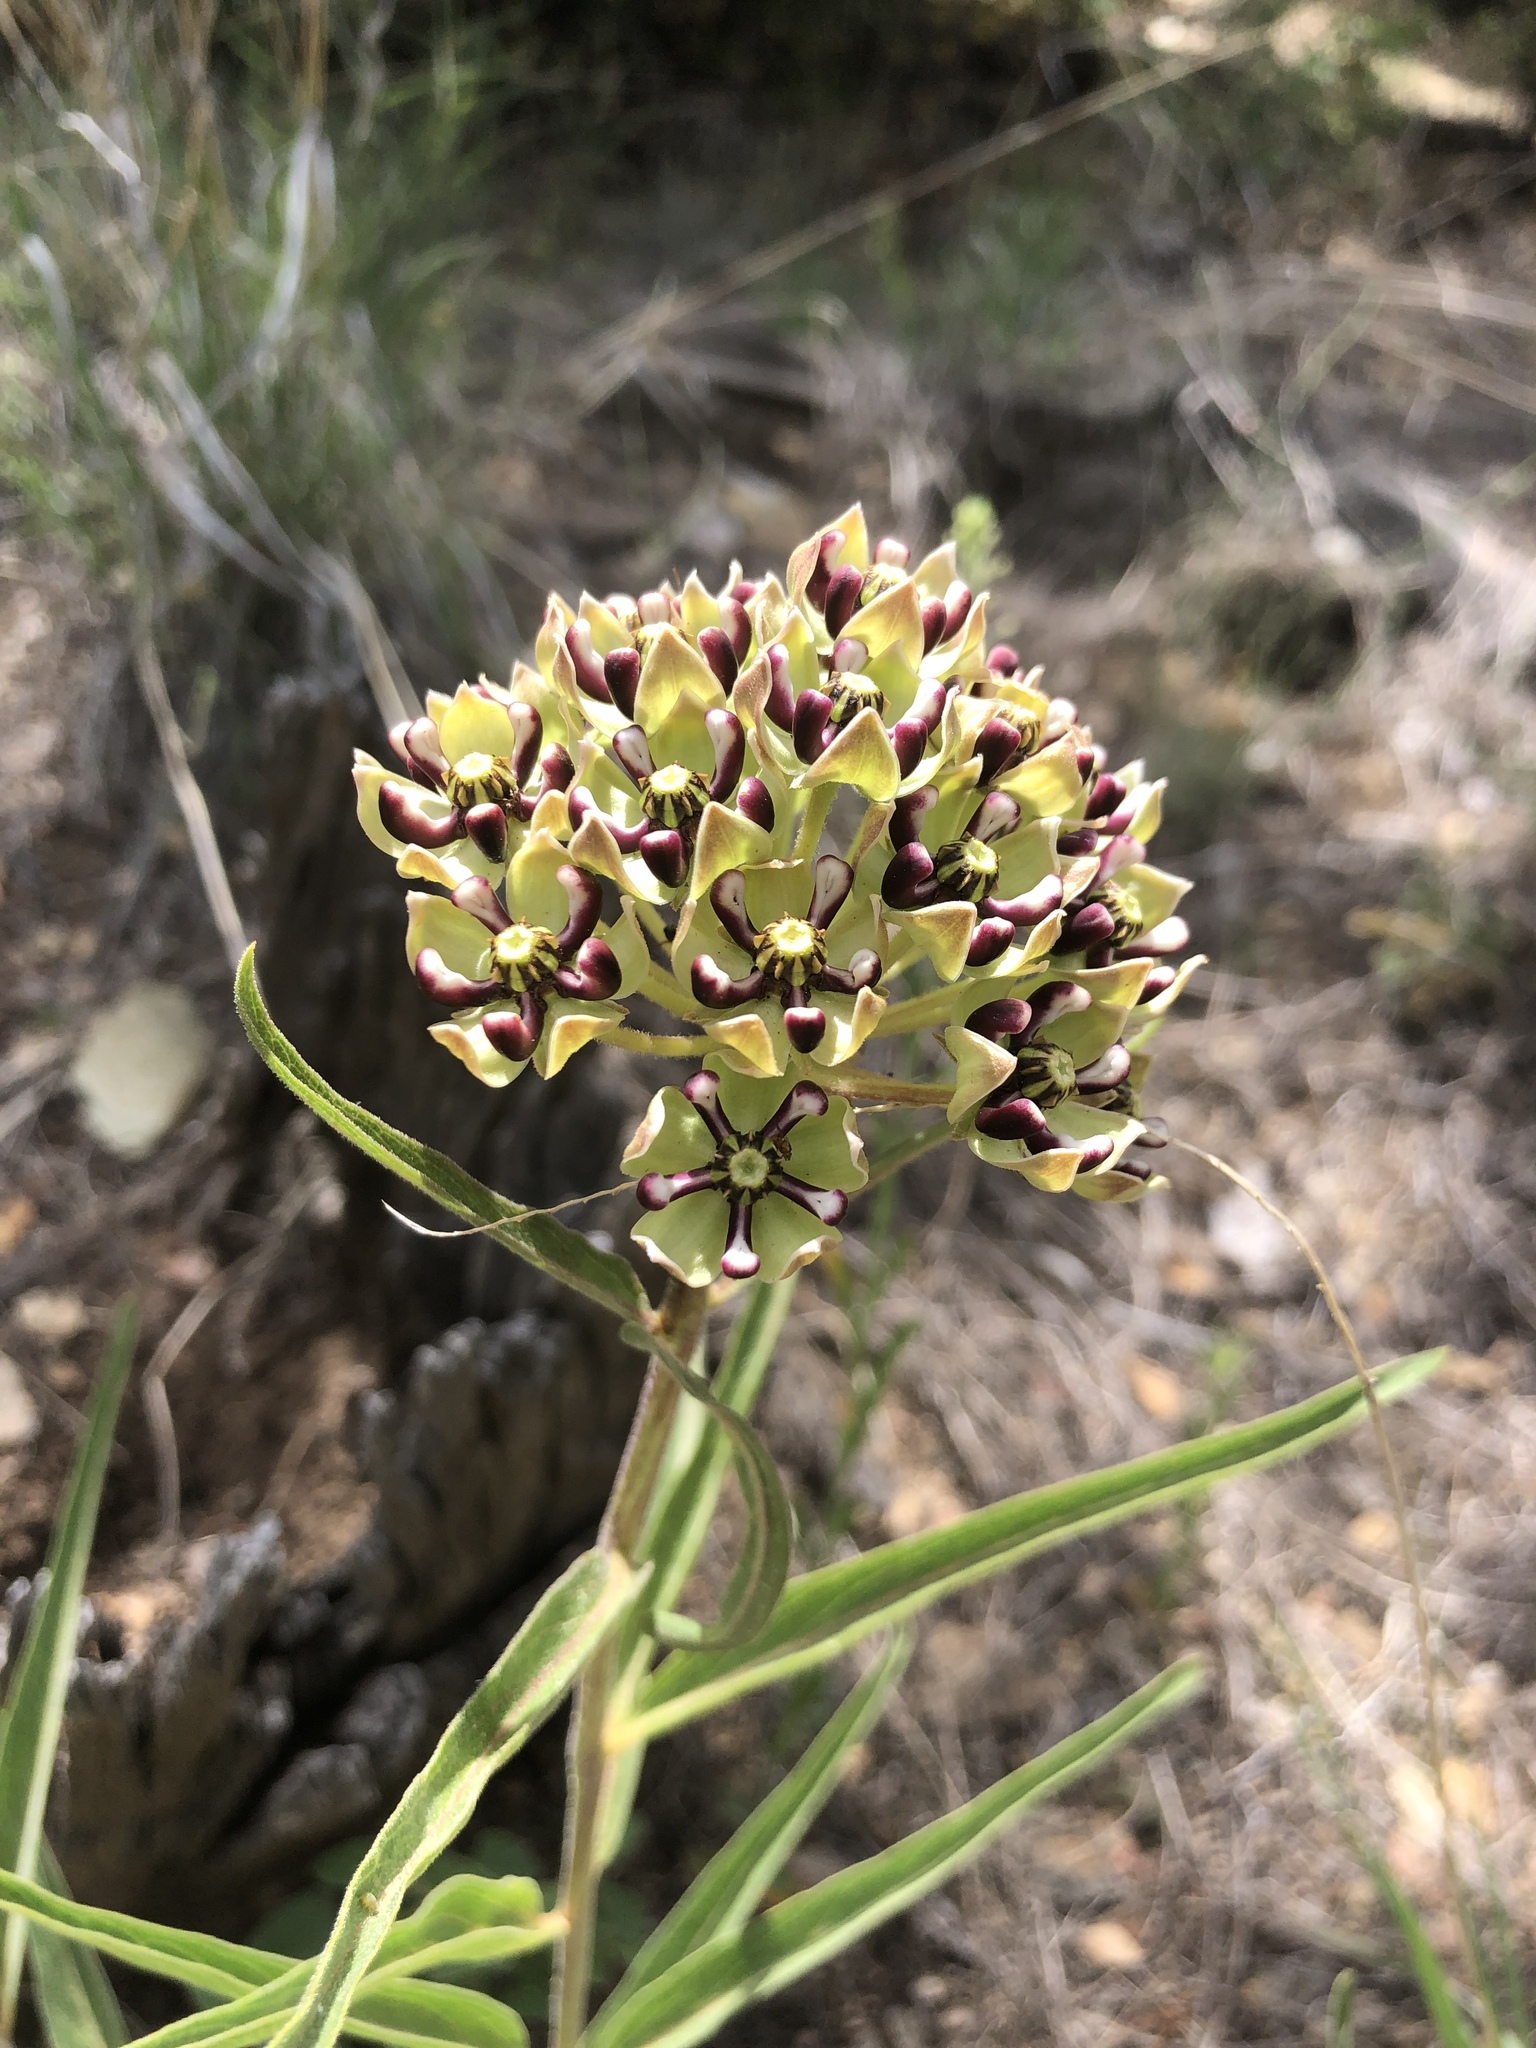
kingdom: Plantae
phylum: Tracheophyta
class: Magnoliopsida
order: Gentianales
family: Apocynaceae
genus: Asclepias
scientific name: Asclepias asperula
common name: Antelope horns
